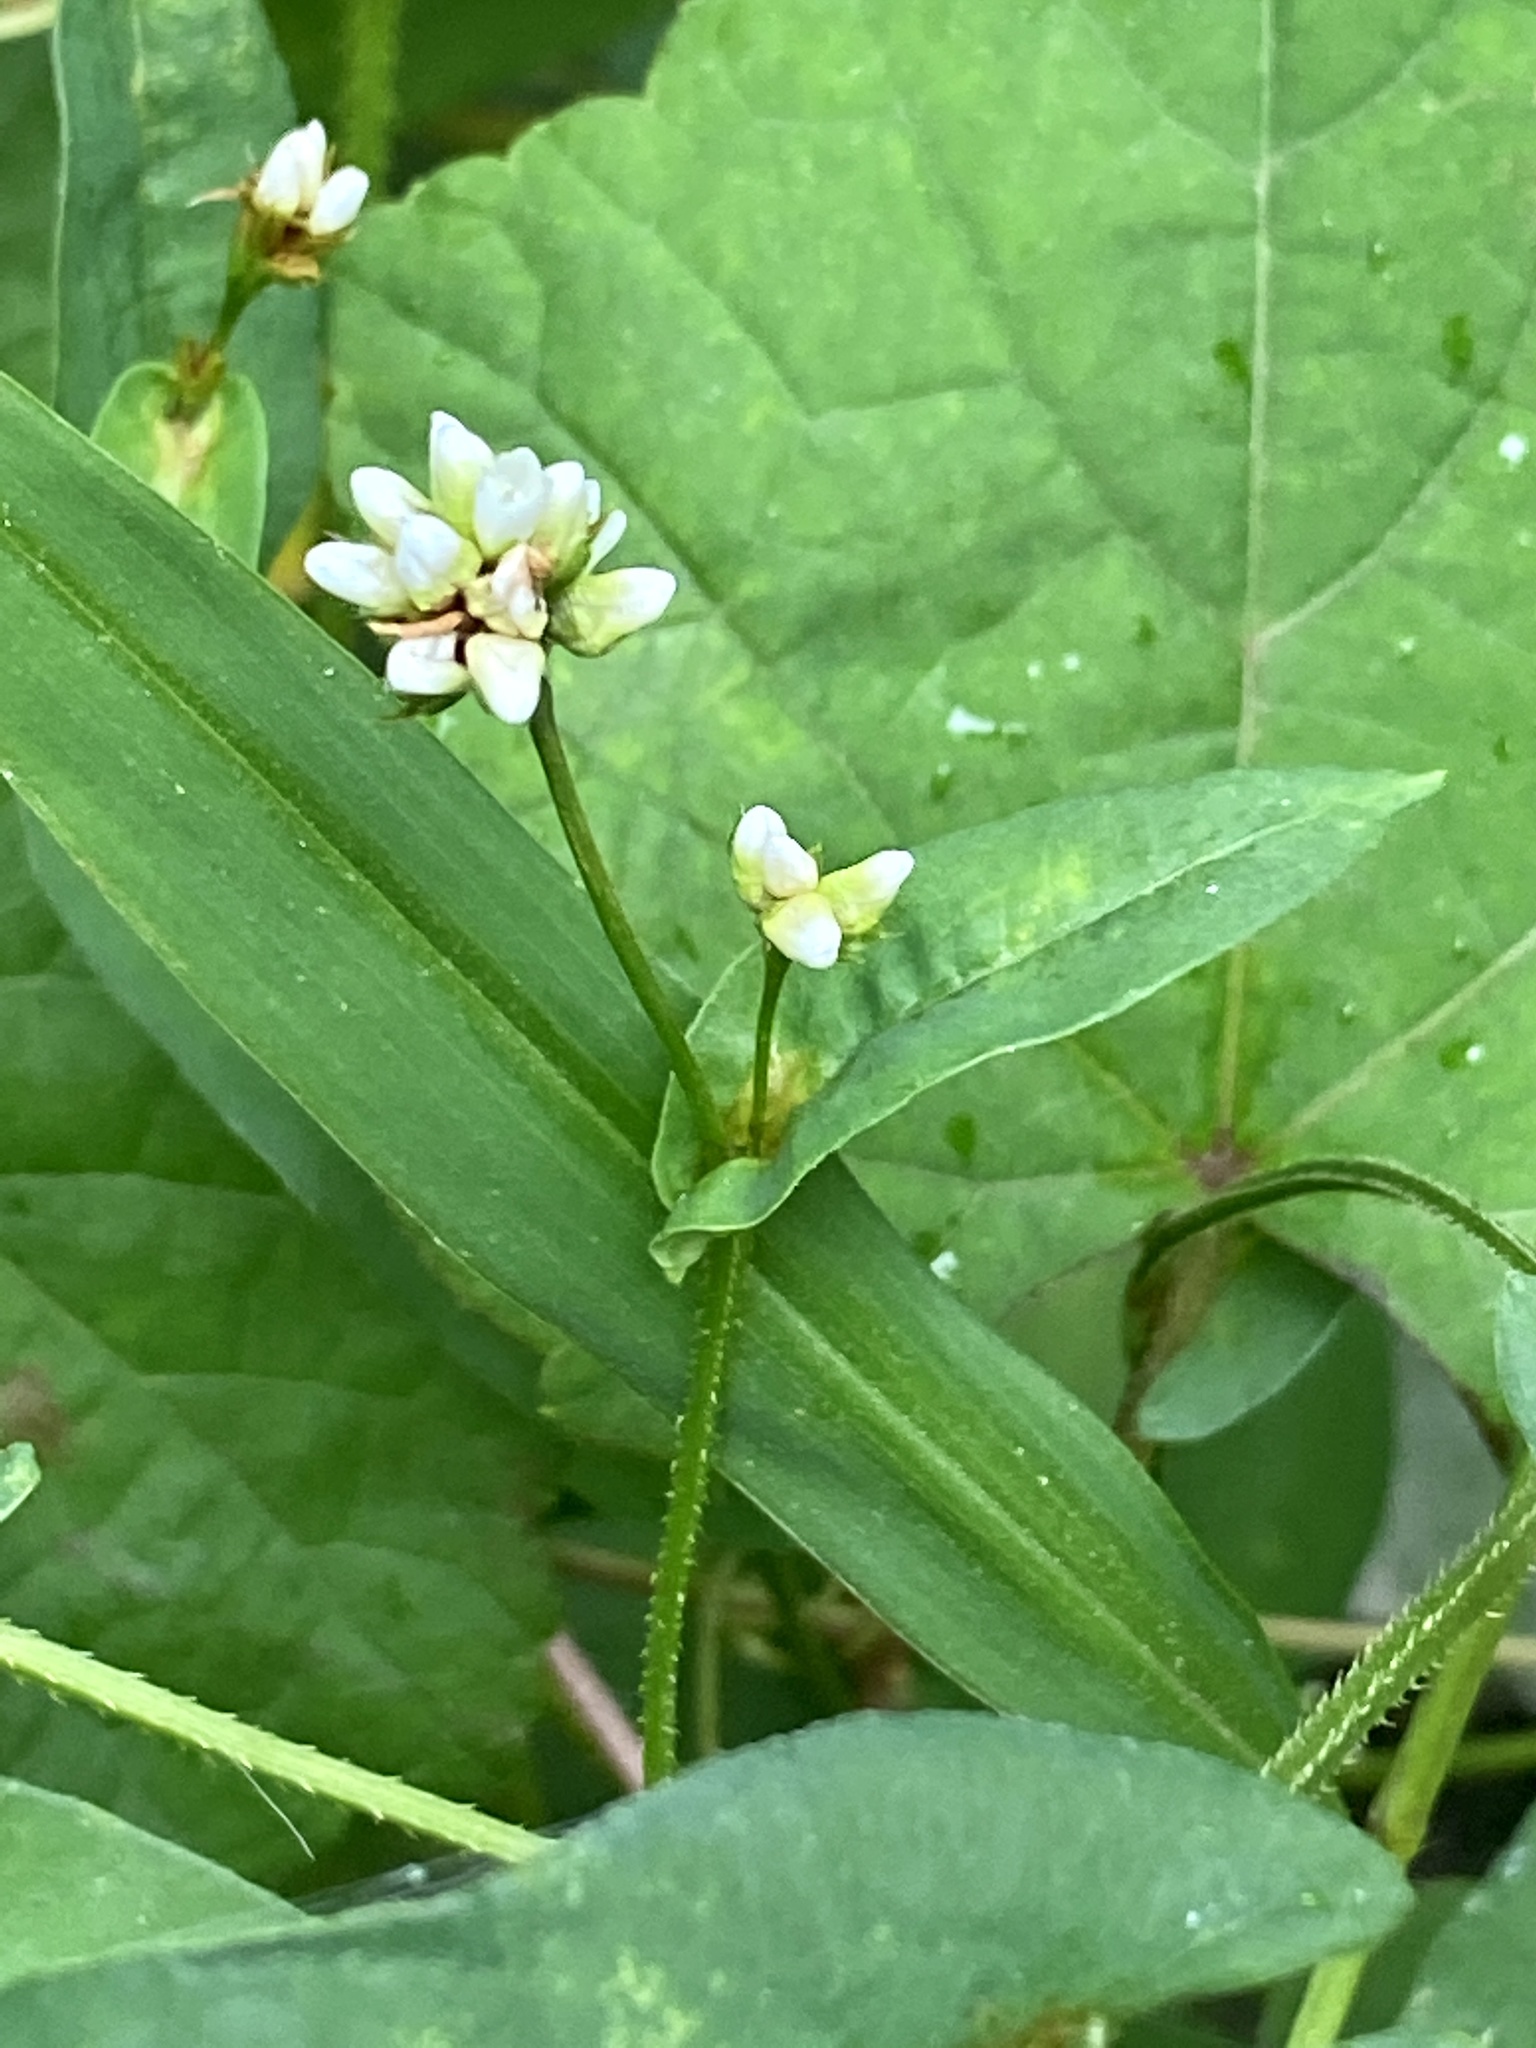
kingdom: Plantae
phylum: Tracheophyta
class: Magnoliopsida
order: Caryophyllales
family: Polygonaceae
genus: Persicaria
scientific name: Persicaria sagittata
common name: American tearthumb
